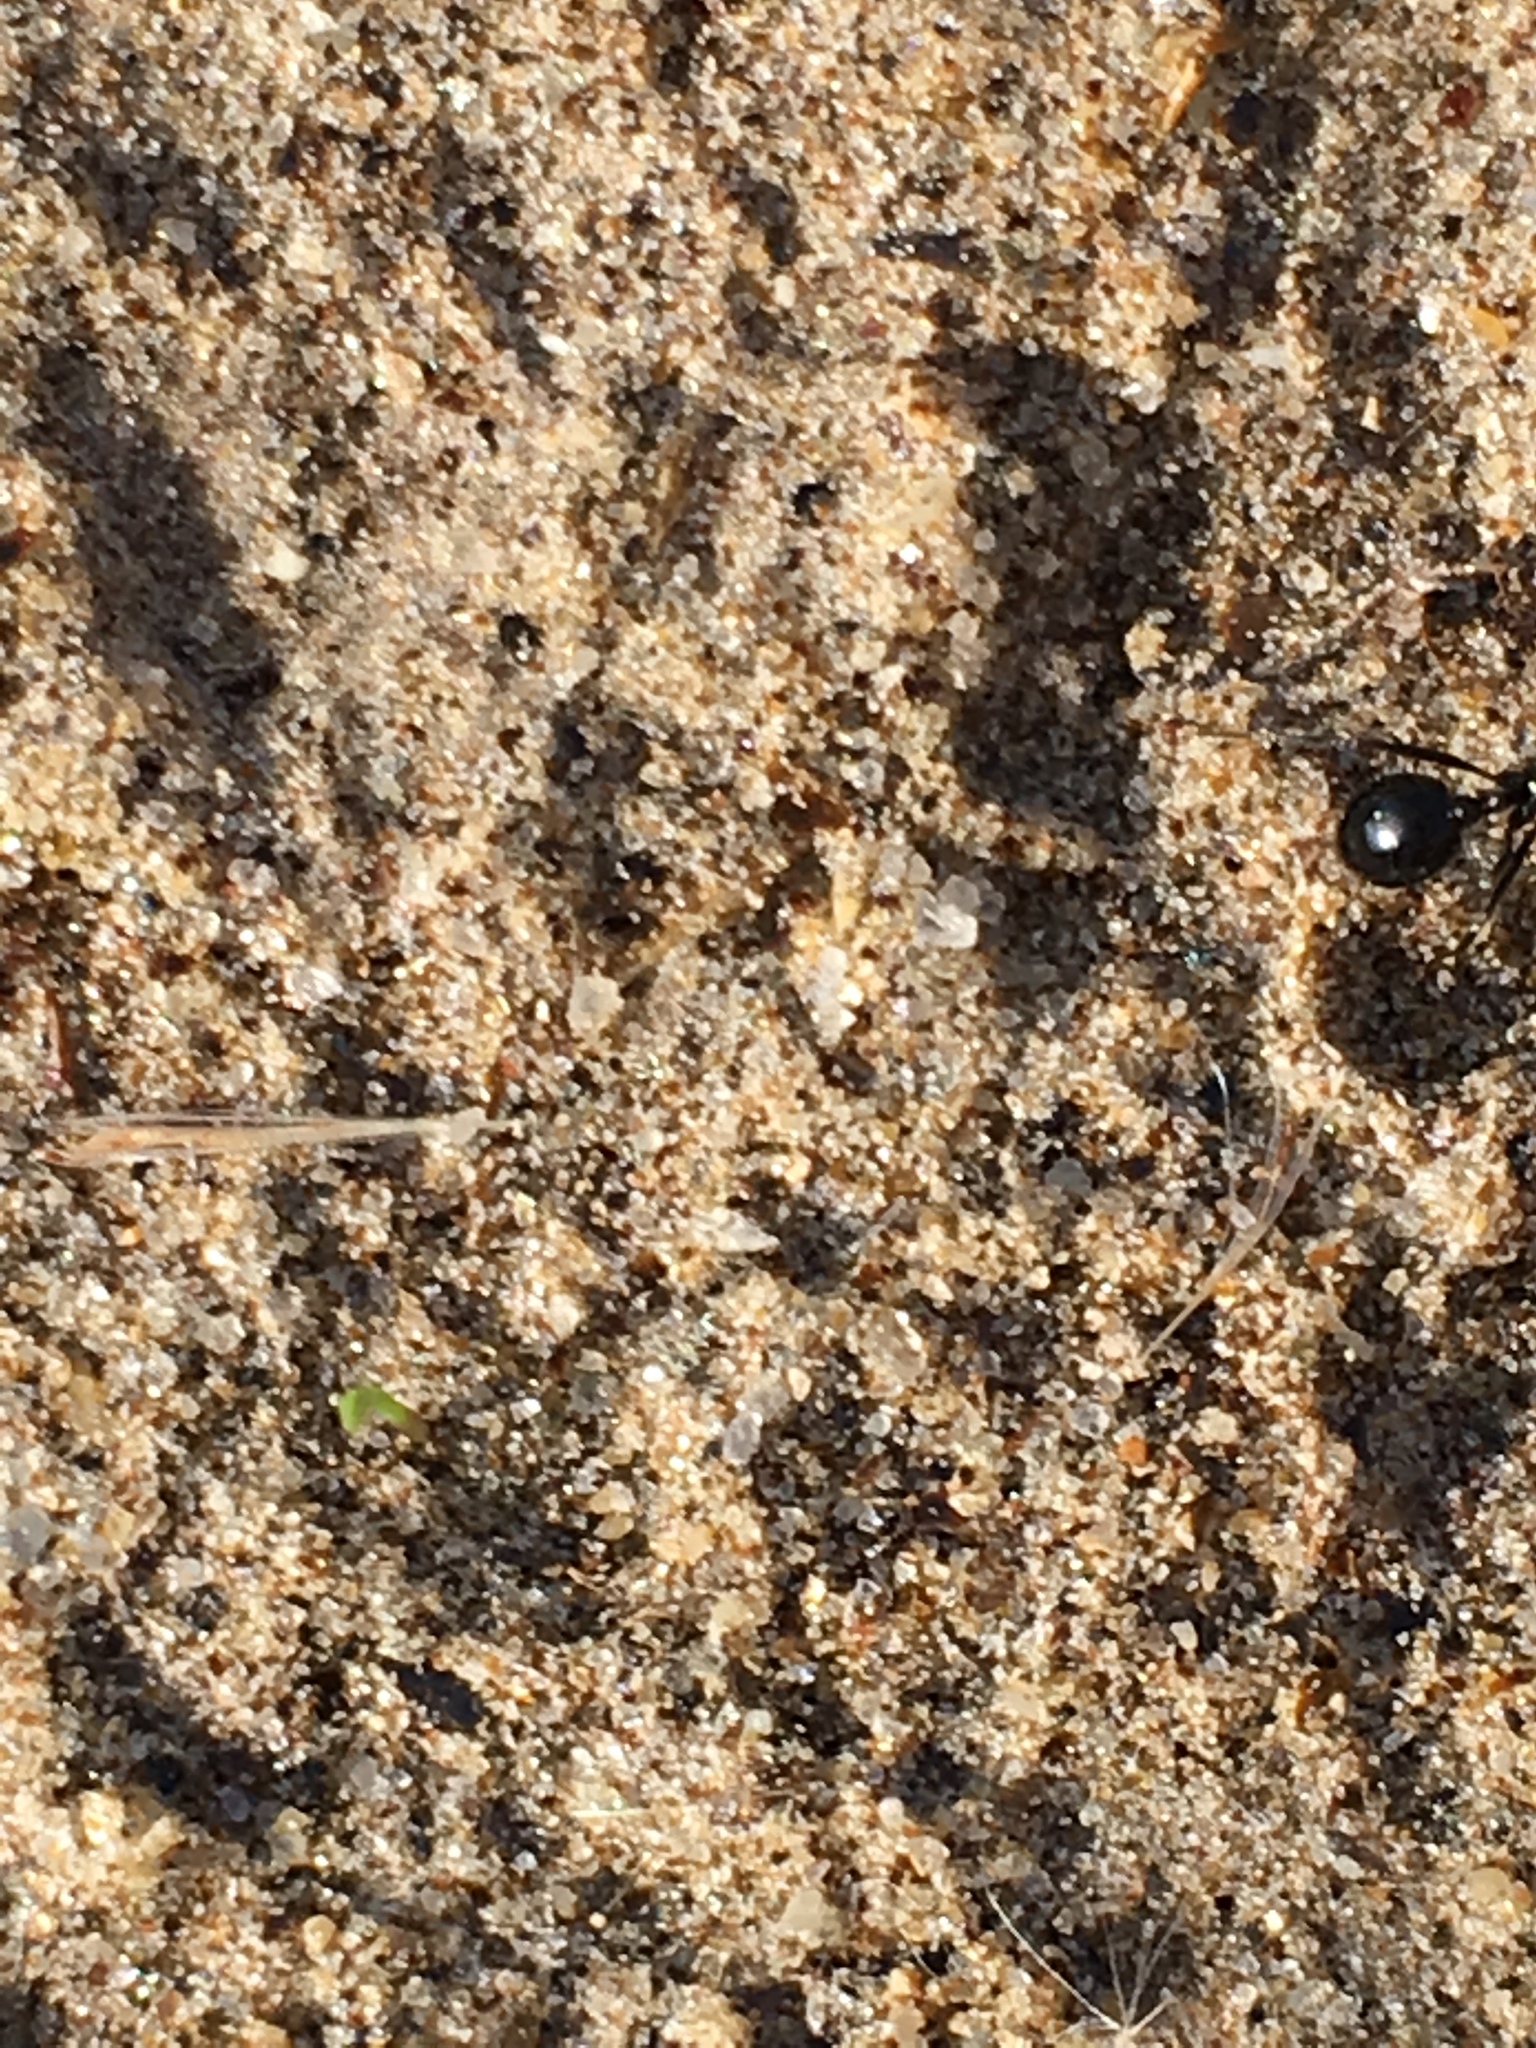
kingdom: Animalia
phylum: Arthropoda
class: Insecta
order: Hymenoptera
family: Formicidae
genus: Messor
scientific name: Messor pergandei
